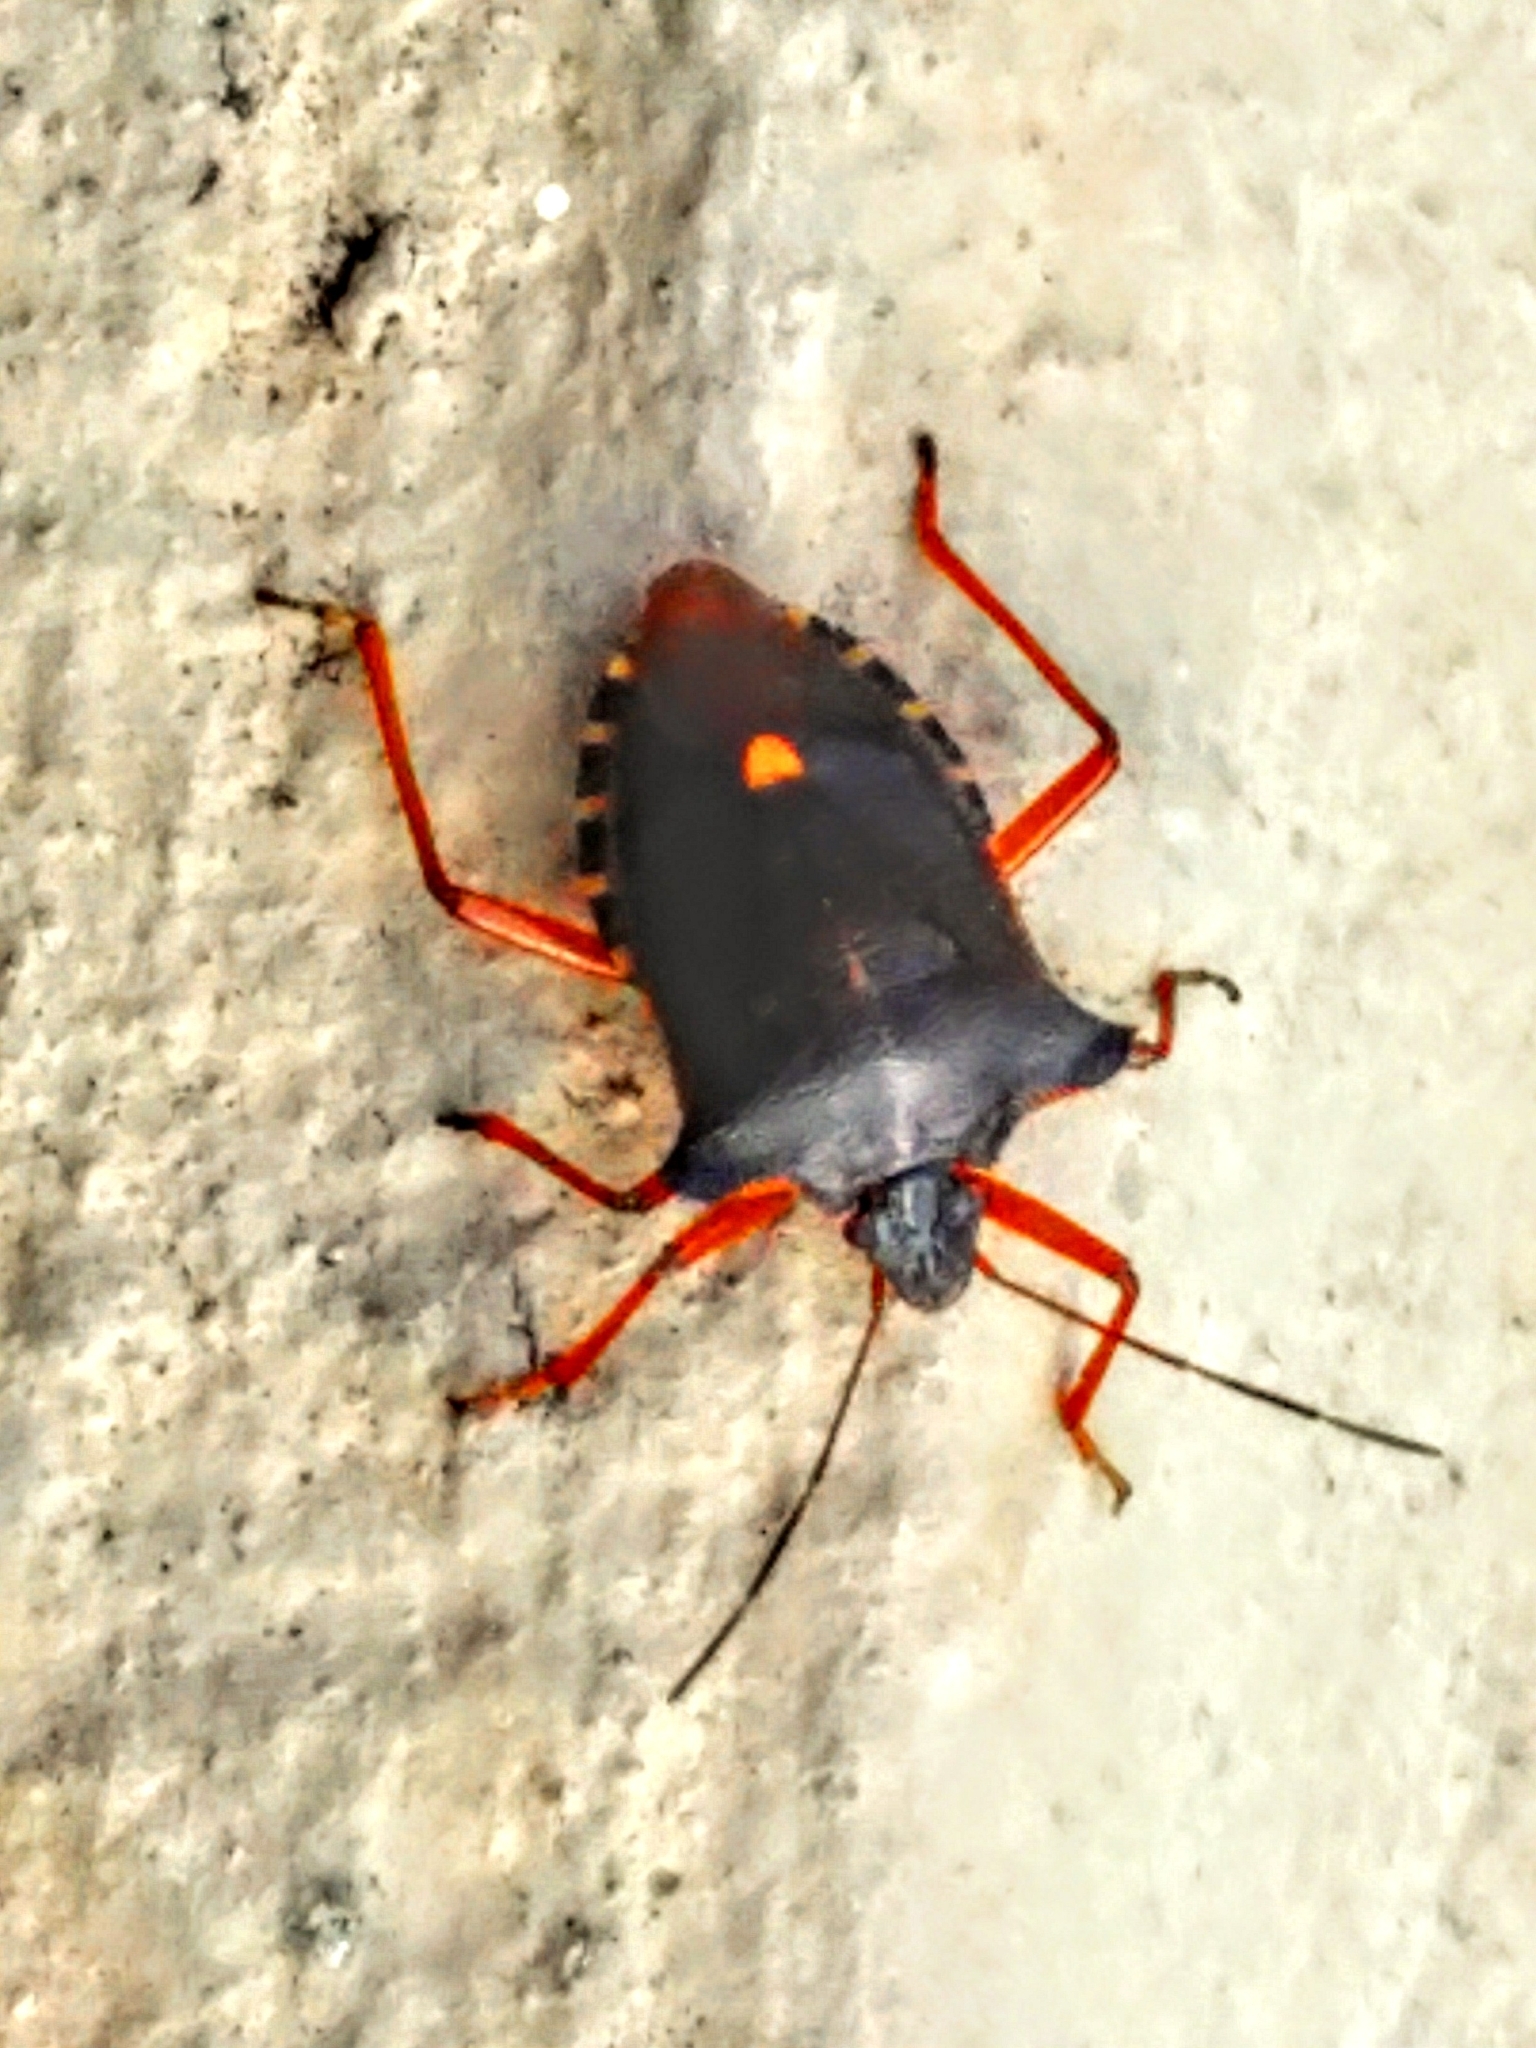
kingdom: Animalia
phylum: Arthropoda
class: Insecta
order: Hemiptera
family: Pentatomidae
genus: Pentatoma
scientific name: Pentatoma rufipes
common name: Forest bug
